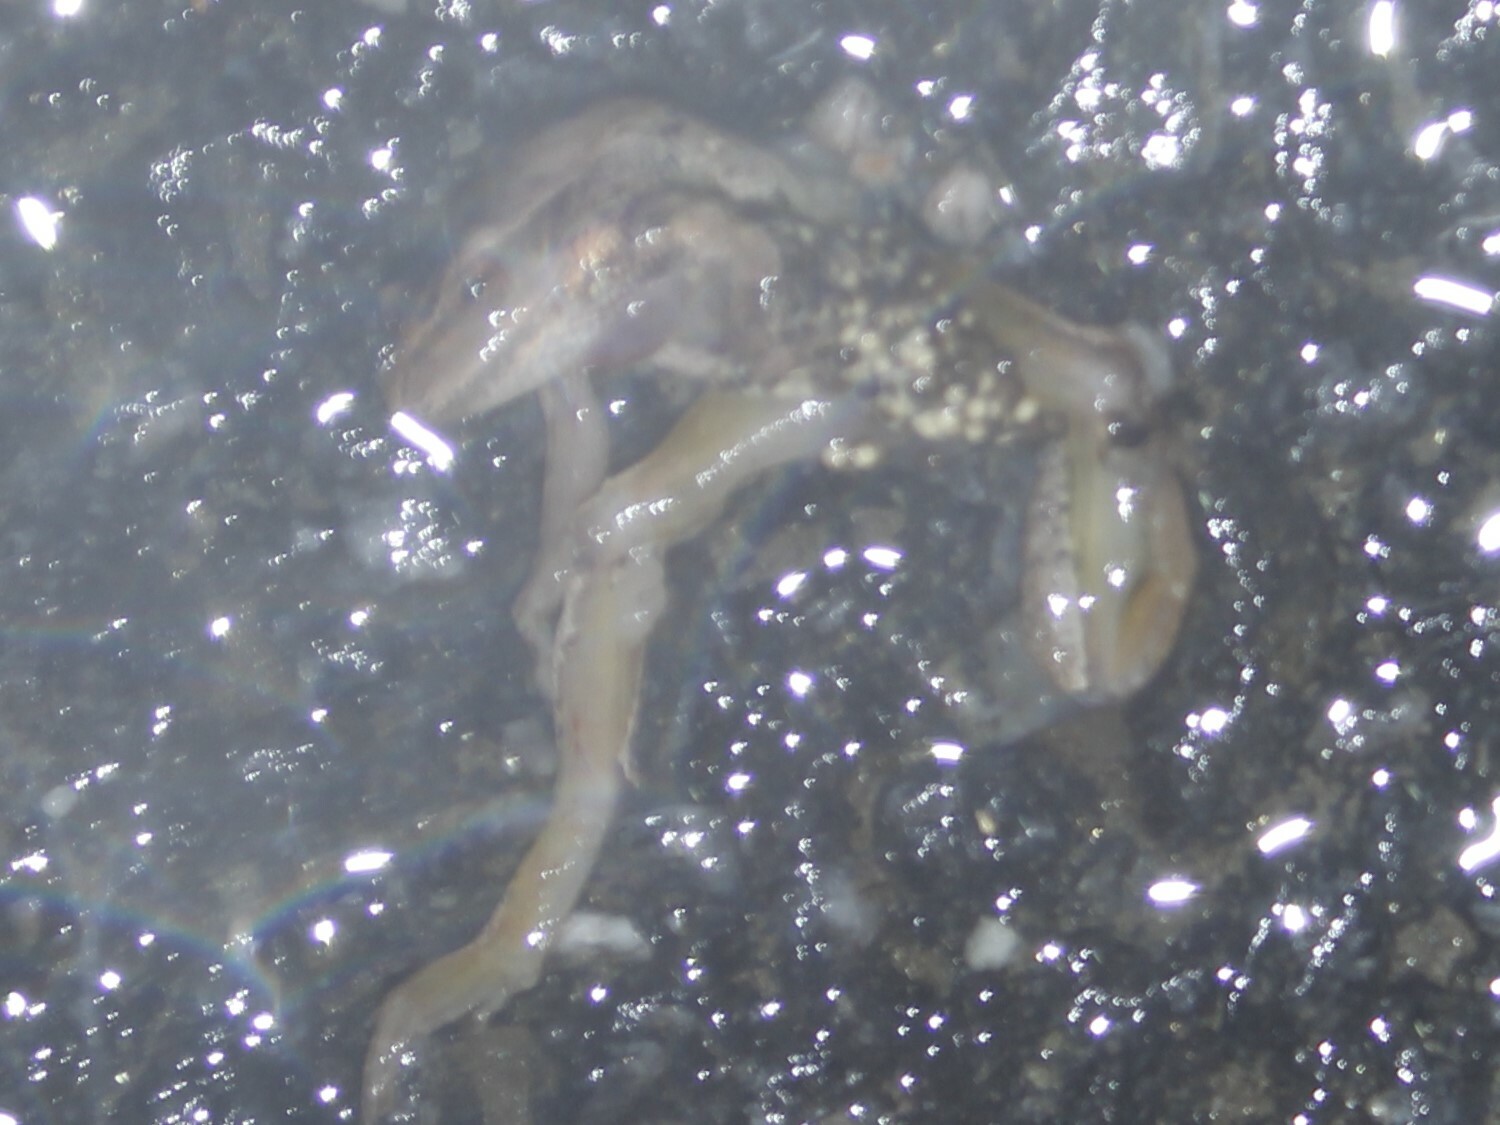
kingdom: Animalia
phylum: Chordata
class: Amphibia
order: Anura
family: Hylidae
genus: Pseudacris
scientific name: Pseudacris crucifer
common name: Spring peeper
